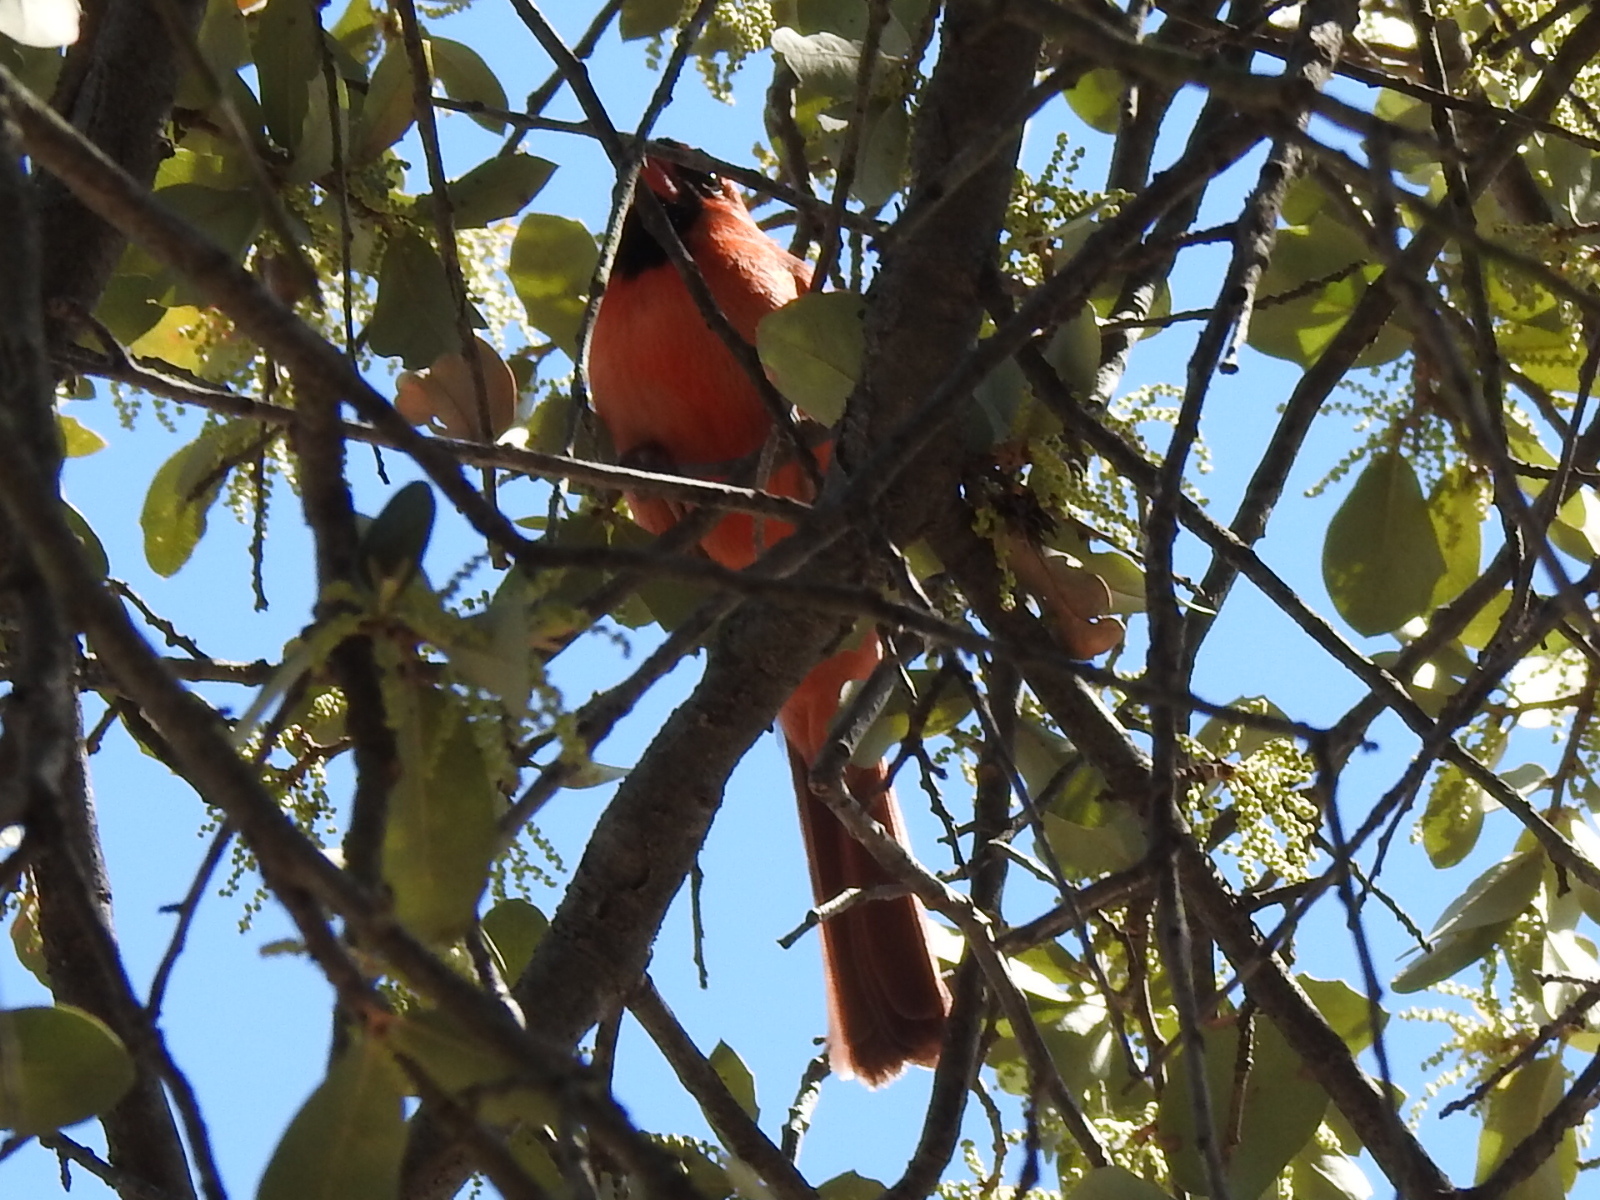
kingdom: Animalia
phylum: Chordata
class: Aves
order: Passeriformes
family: Cardinalidae
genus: Cardinalis
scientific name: Cardinalis cardinalis
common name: Northern cardinal
